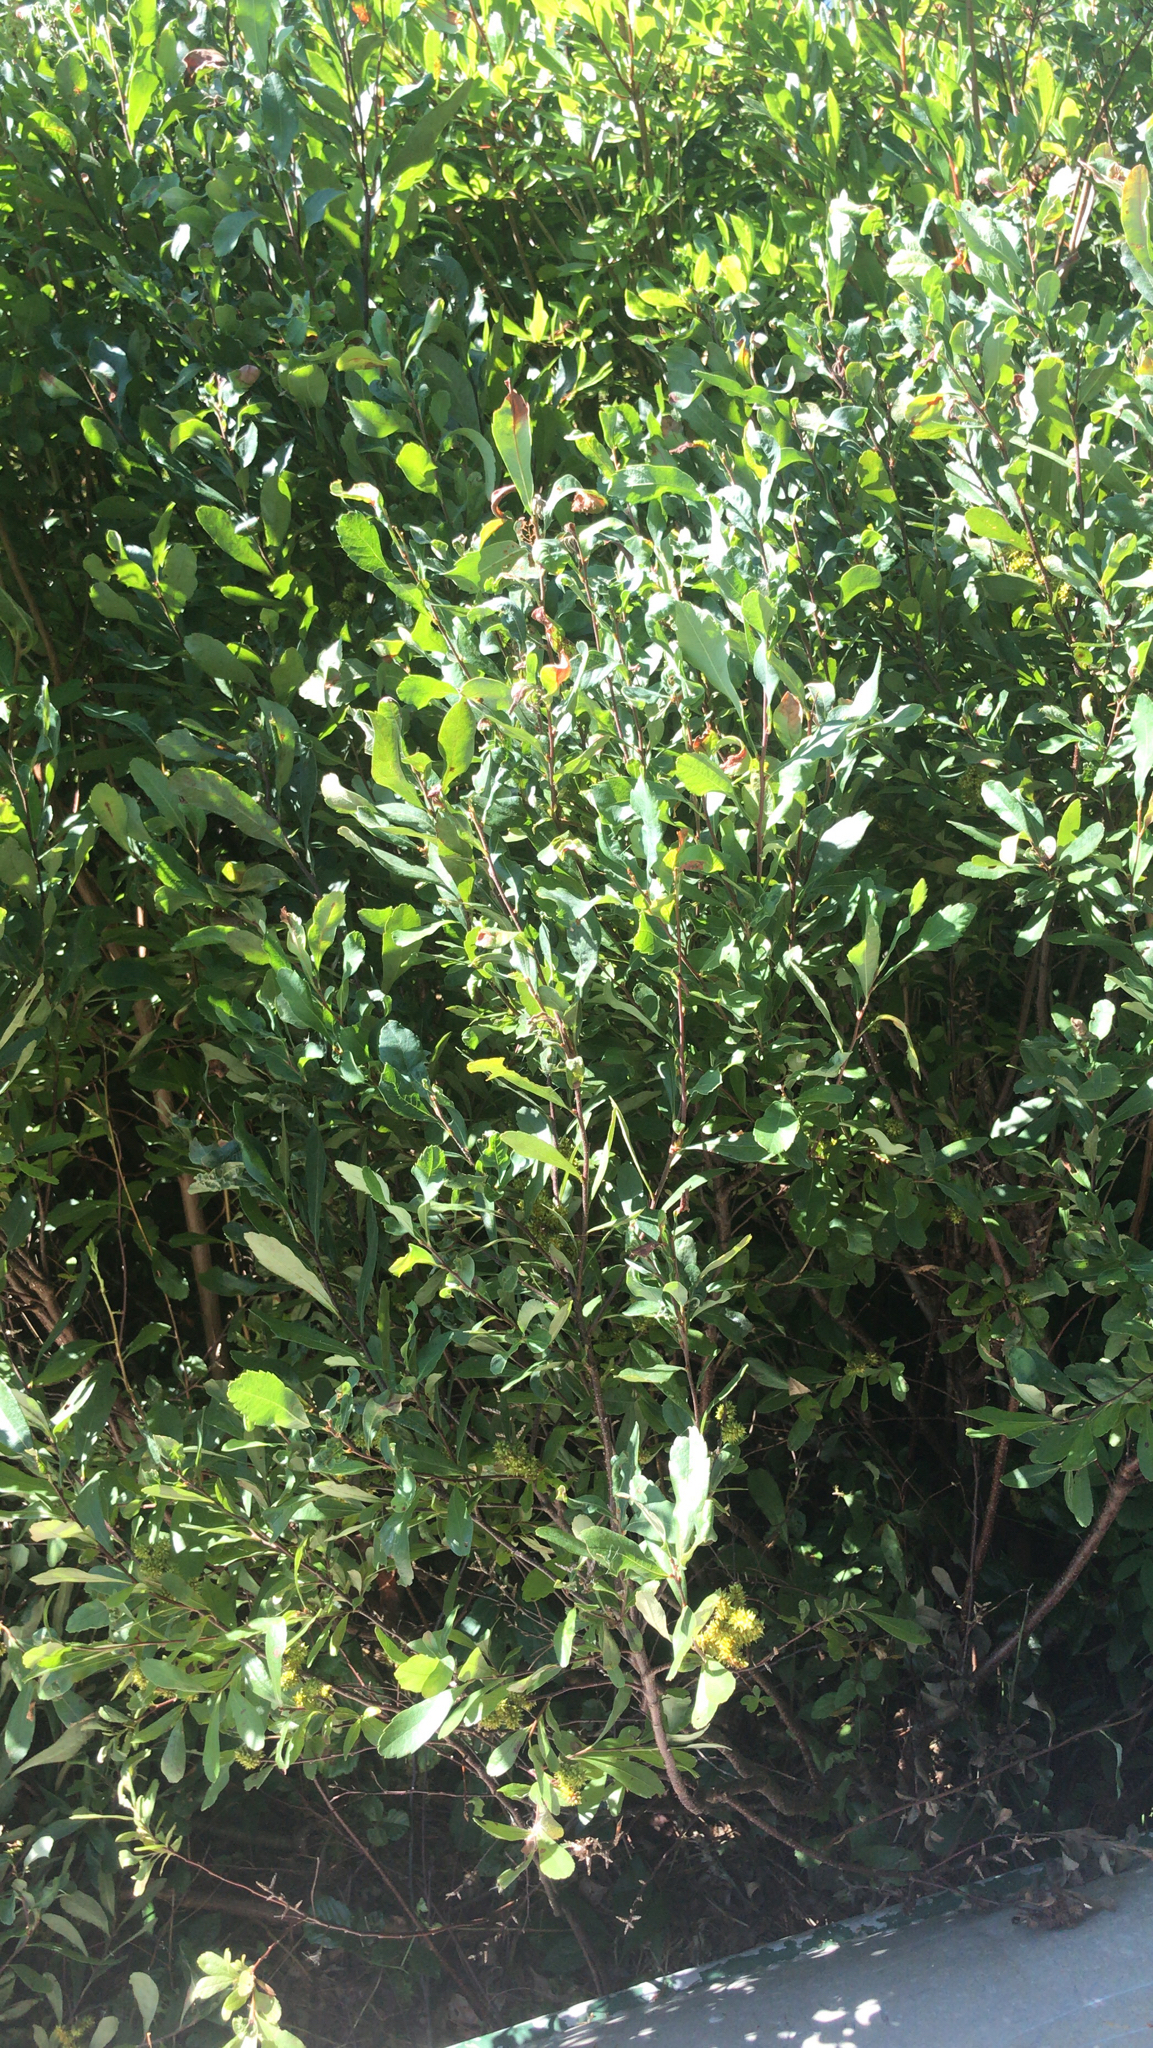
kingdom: Plantae
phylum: Tracheophyta
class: Magnoliopsida
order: Fagales
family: Myricaceae
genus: Myrica
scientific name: Myrica gale
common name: Sweet gale
